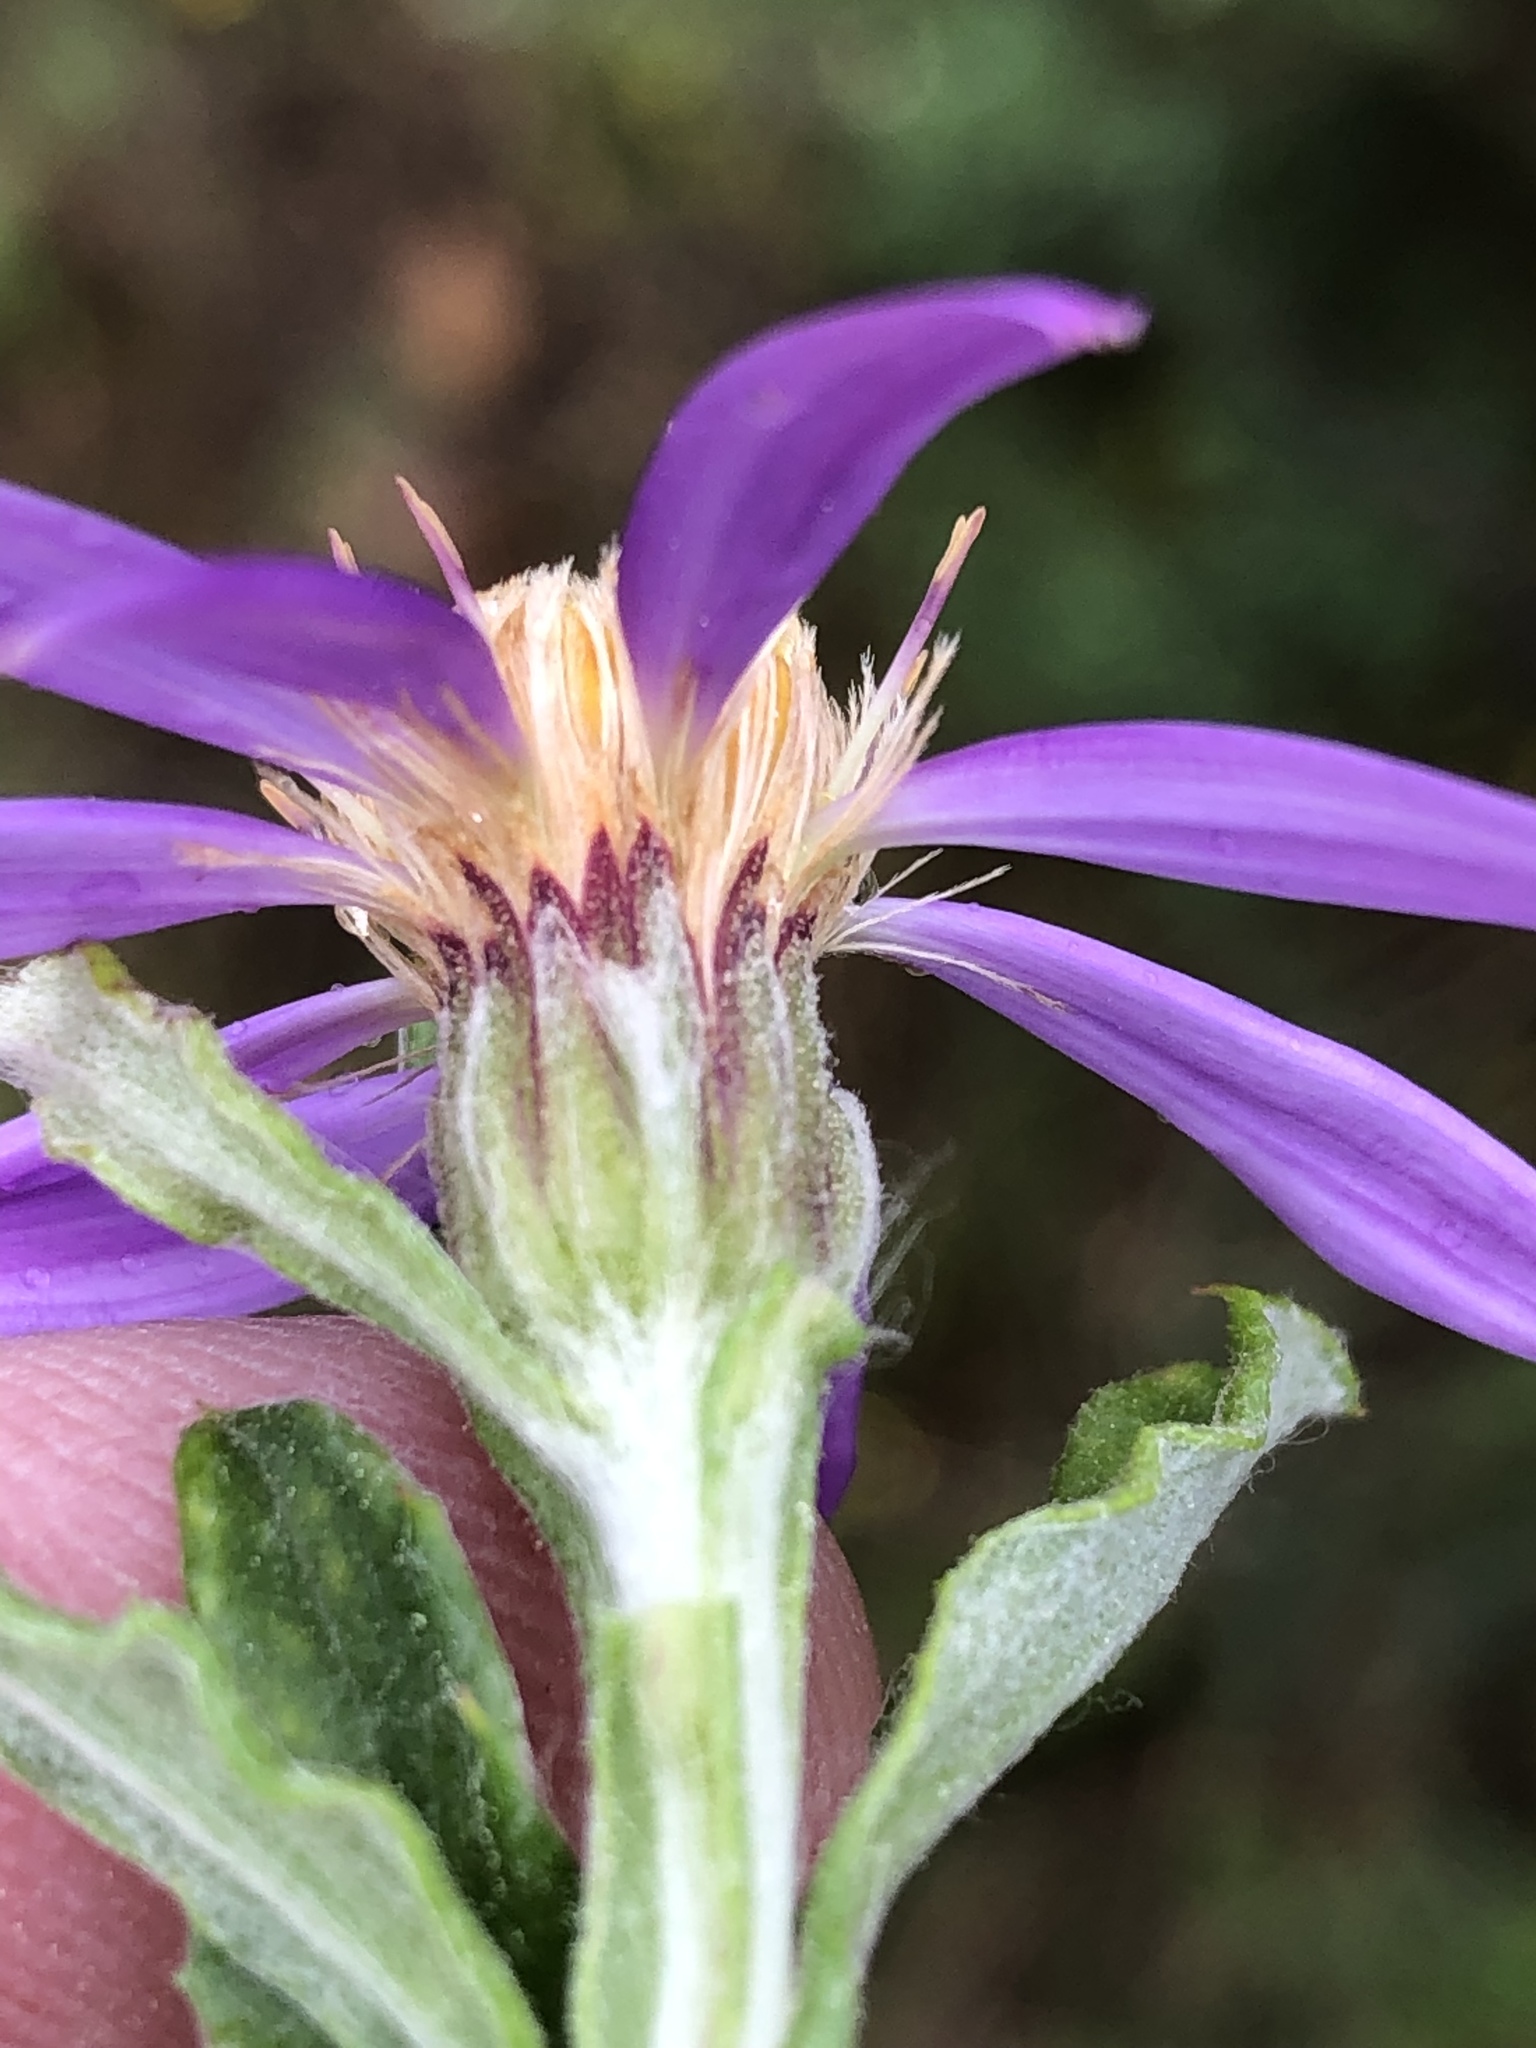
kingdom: Plantae
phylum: Tracheophyta
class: Magnoliopsida
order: Asterales
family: Asteraceae
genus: Printzia
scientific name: Printzia polifolia
